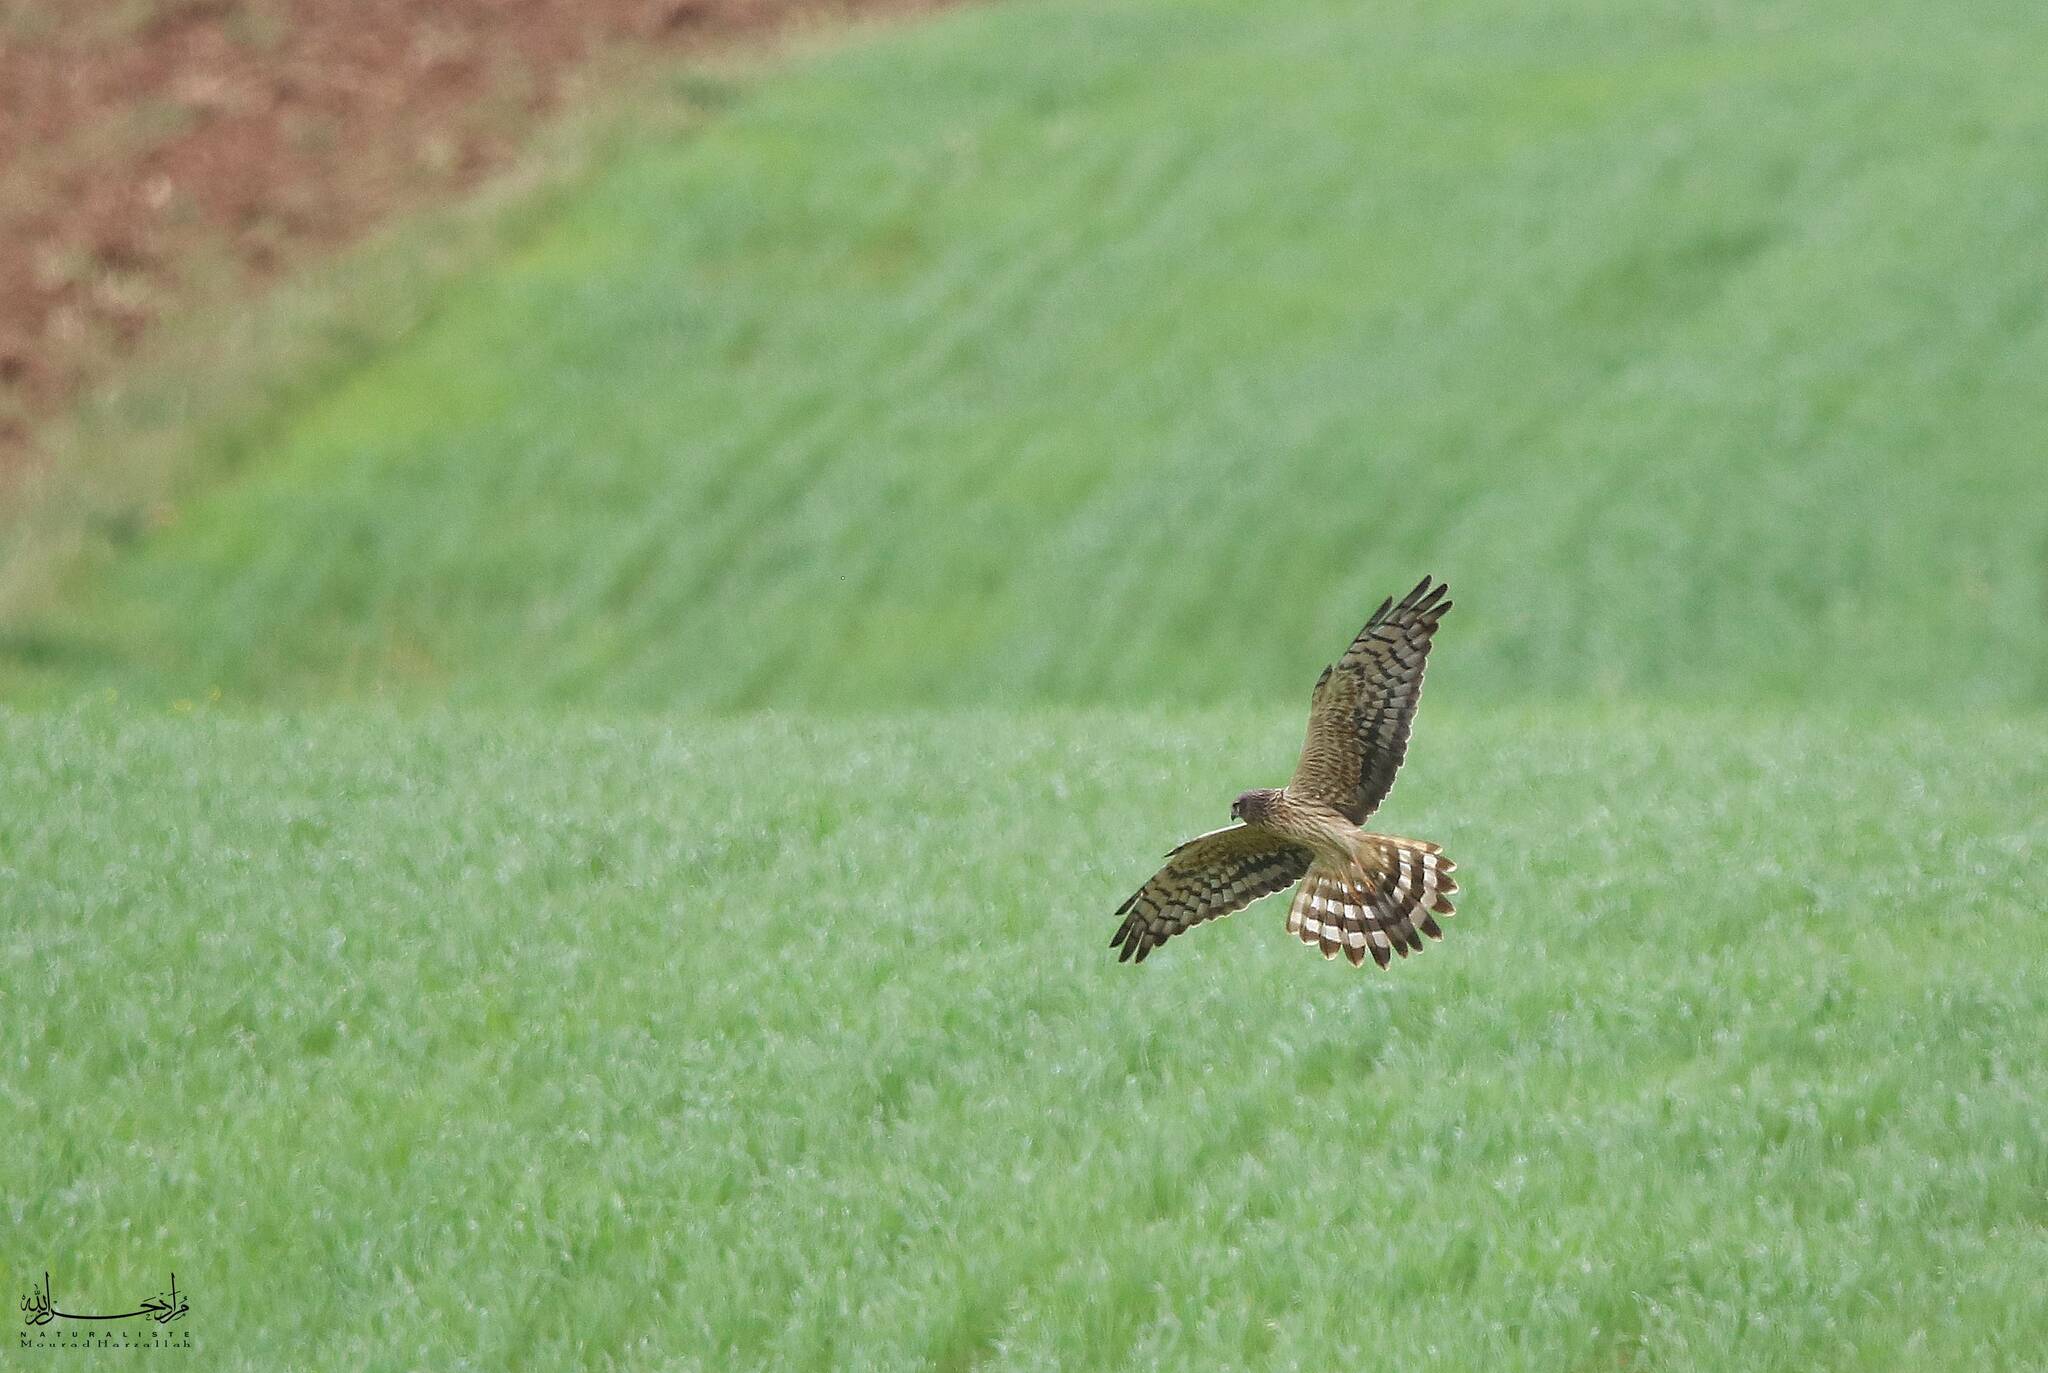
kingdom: Animalia
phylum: Chordata
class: Aves
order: Accipitriformes
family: Accipitridae
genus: Circus
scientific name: Circus pygargus
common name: Montagu's harrier
